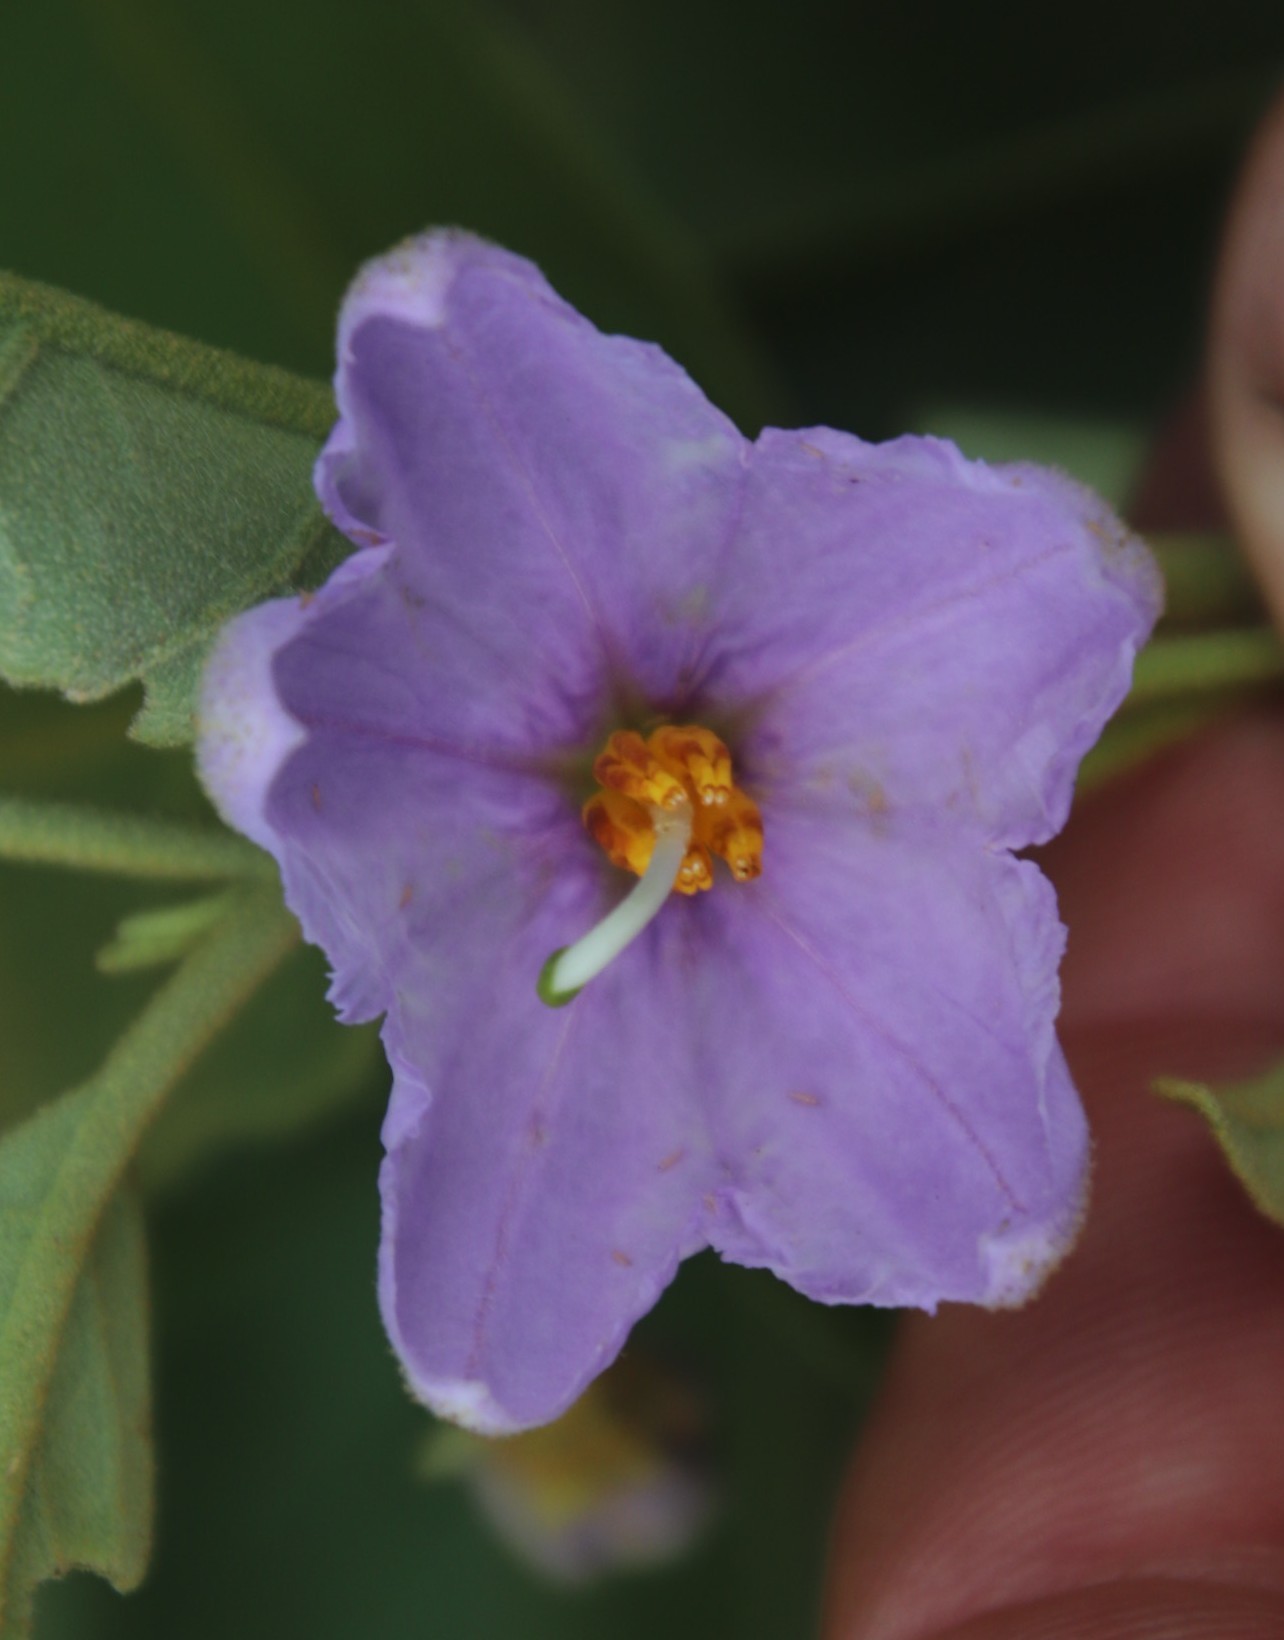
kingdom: Plantae
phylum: Tracheophyta
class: Magnoliopsida
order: Solanales
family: Solanaceae
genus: Solanum
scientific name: Solanum campylacanthum
